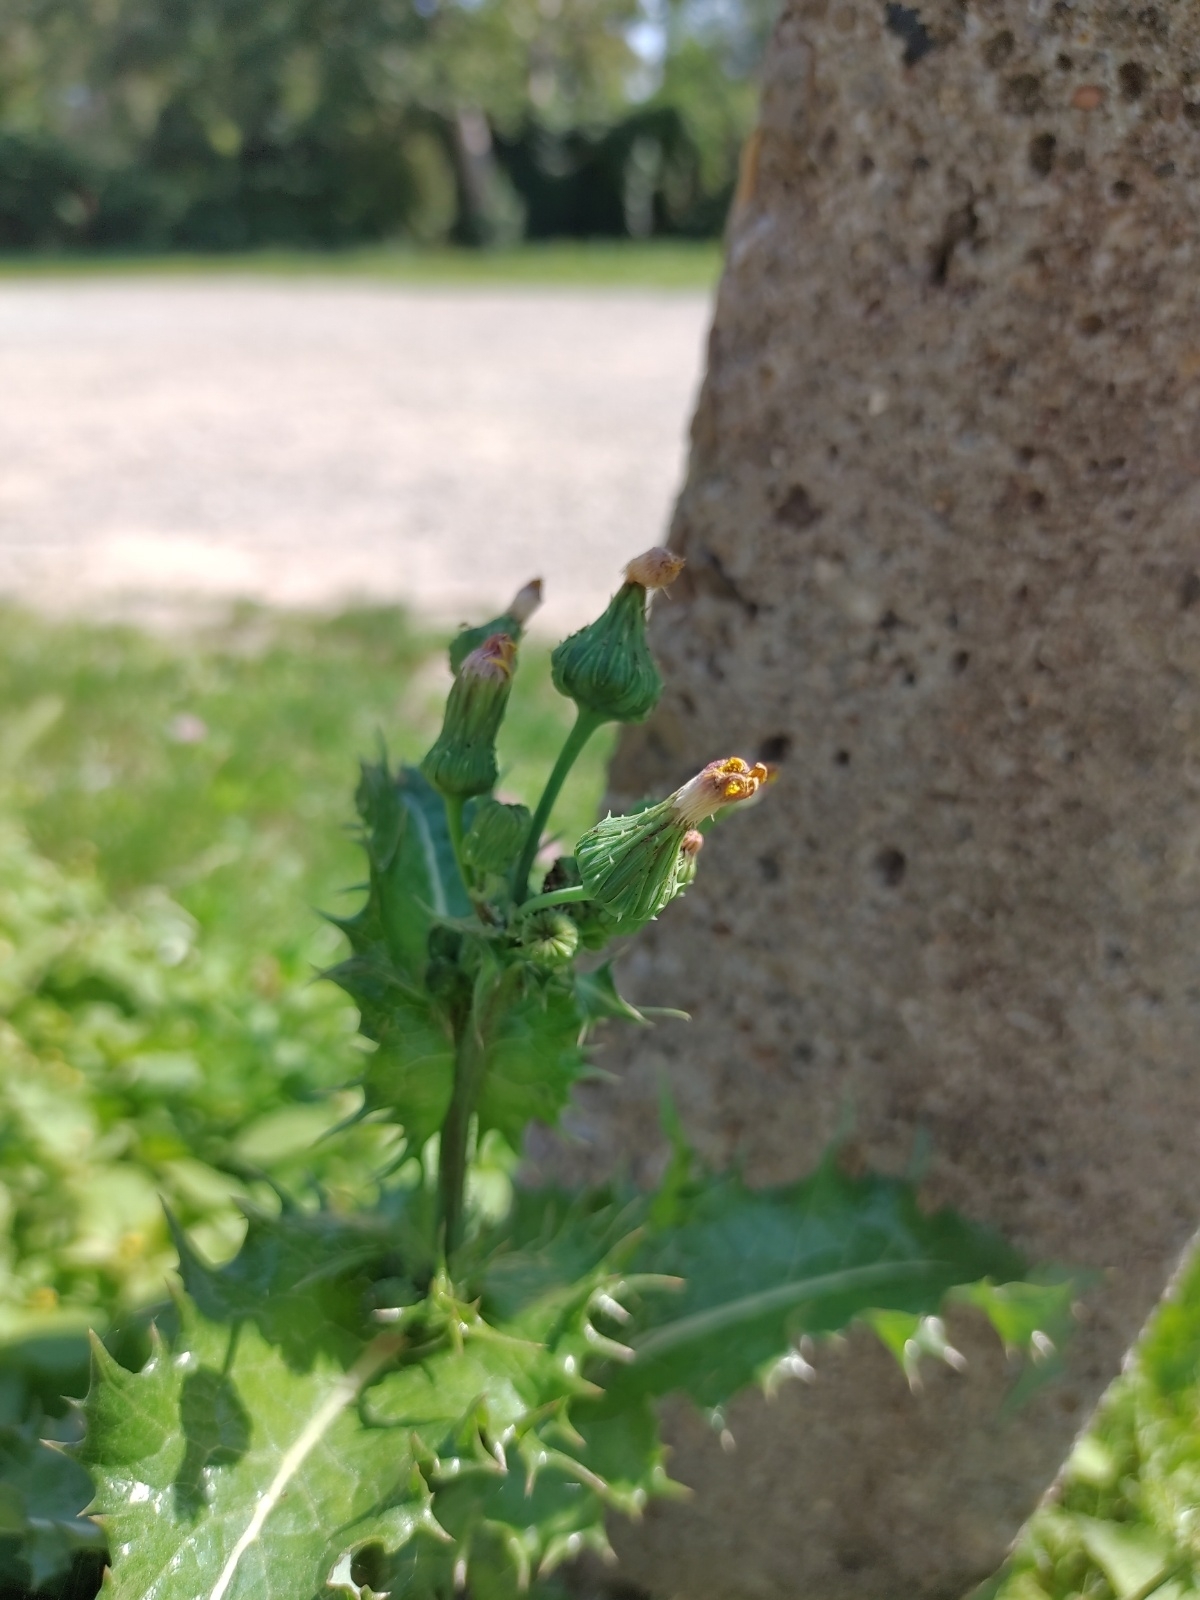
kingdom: Plantae
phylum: Tracheophyta
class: Magnoliopsida
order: Asterales
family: Asteraceae
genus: Sonchus
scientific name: Sonchus asper
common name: Prickly sow-thistle
